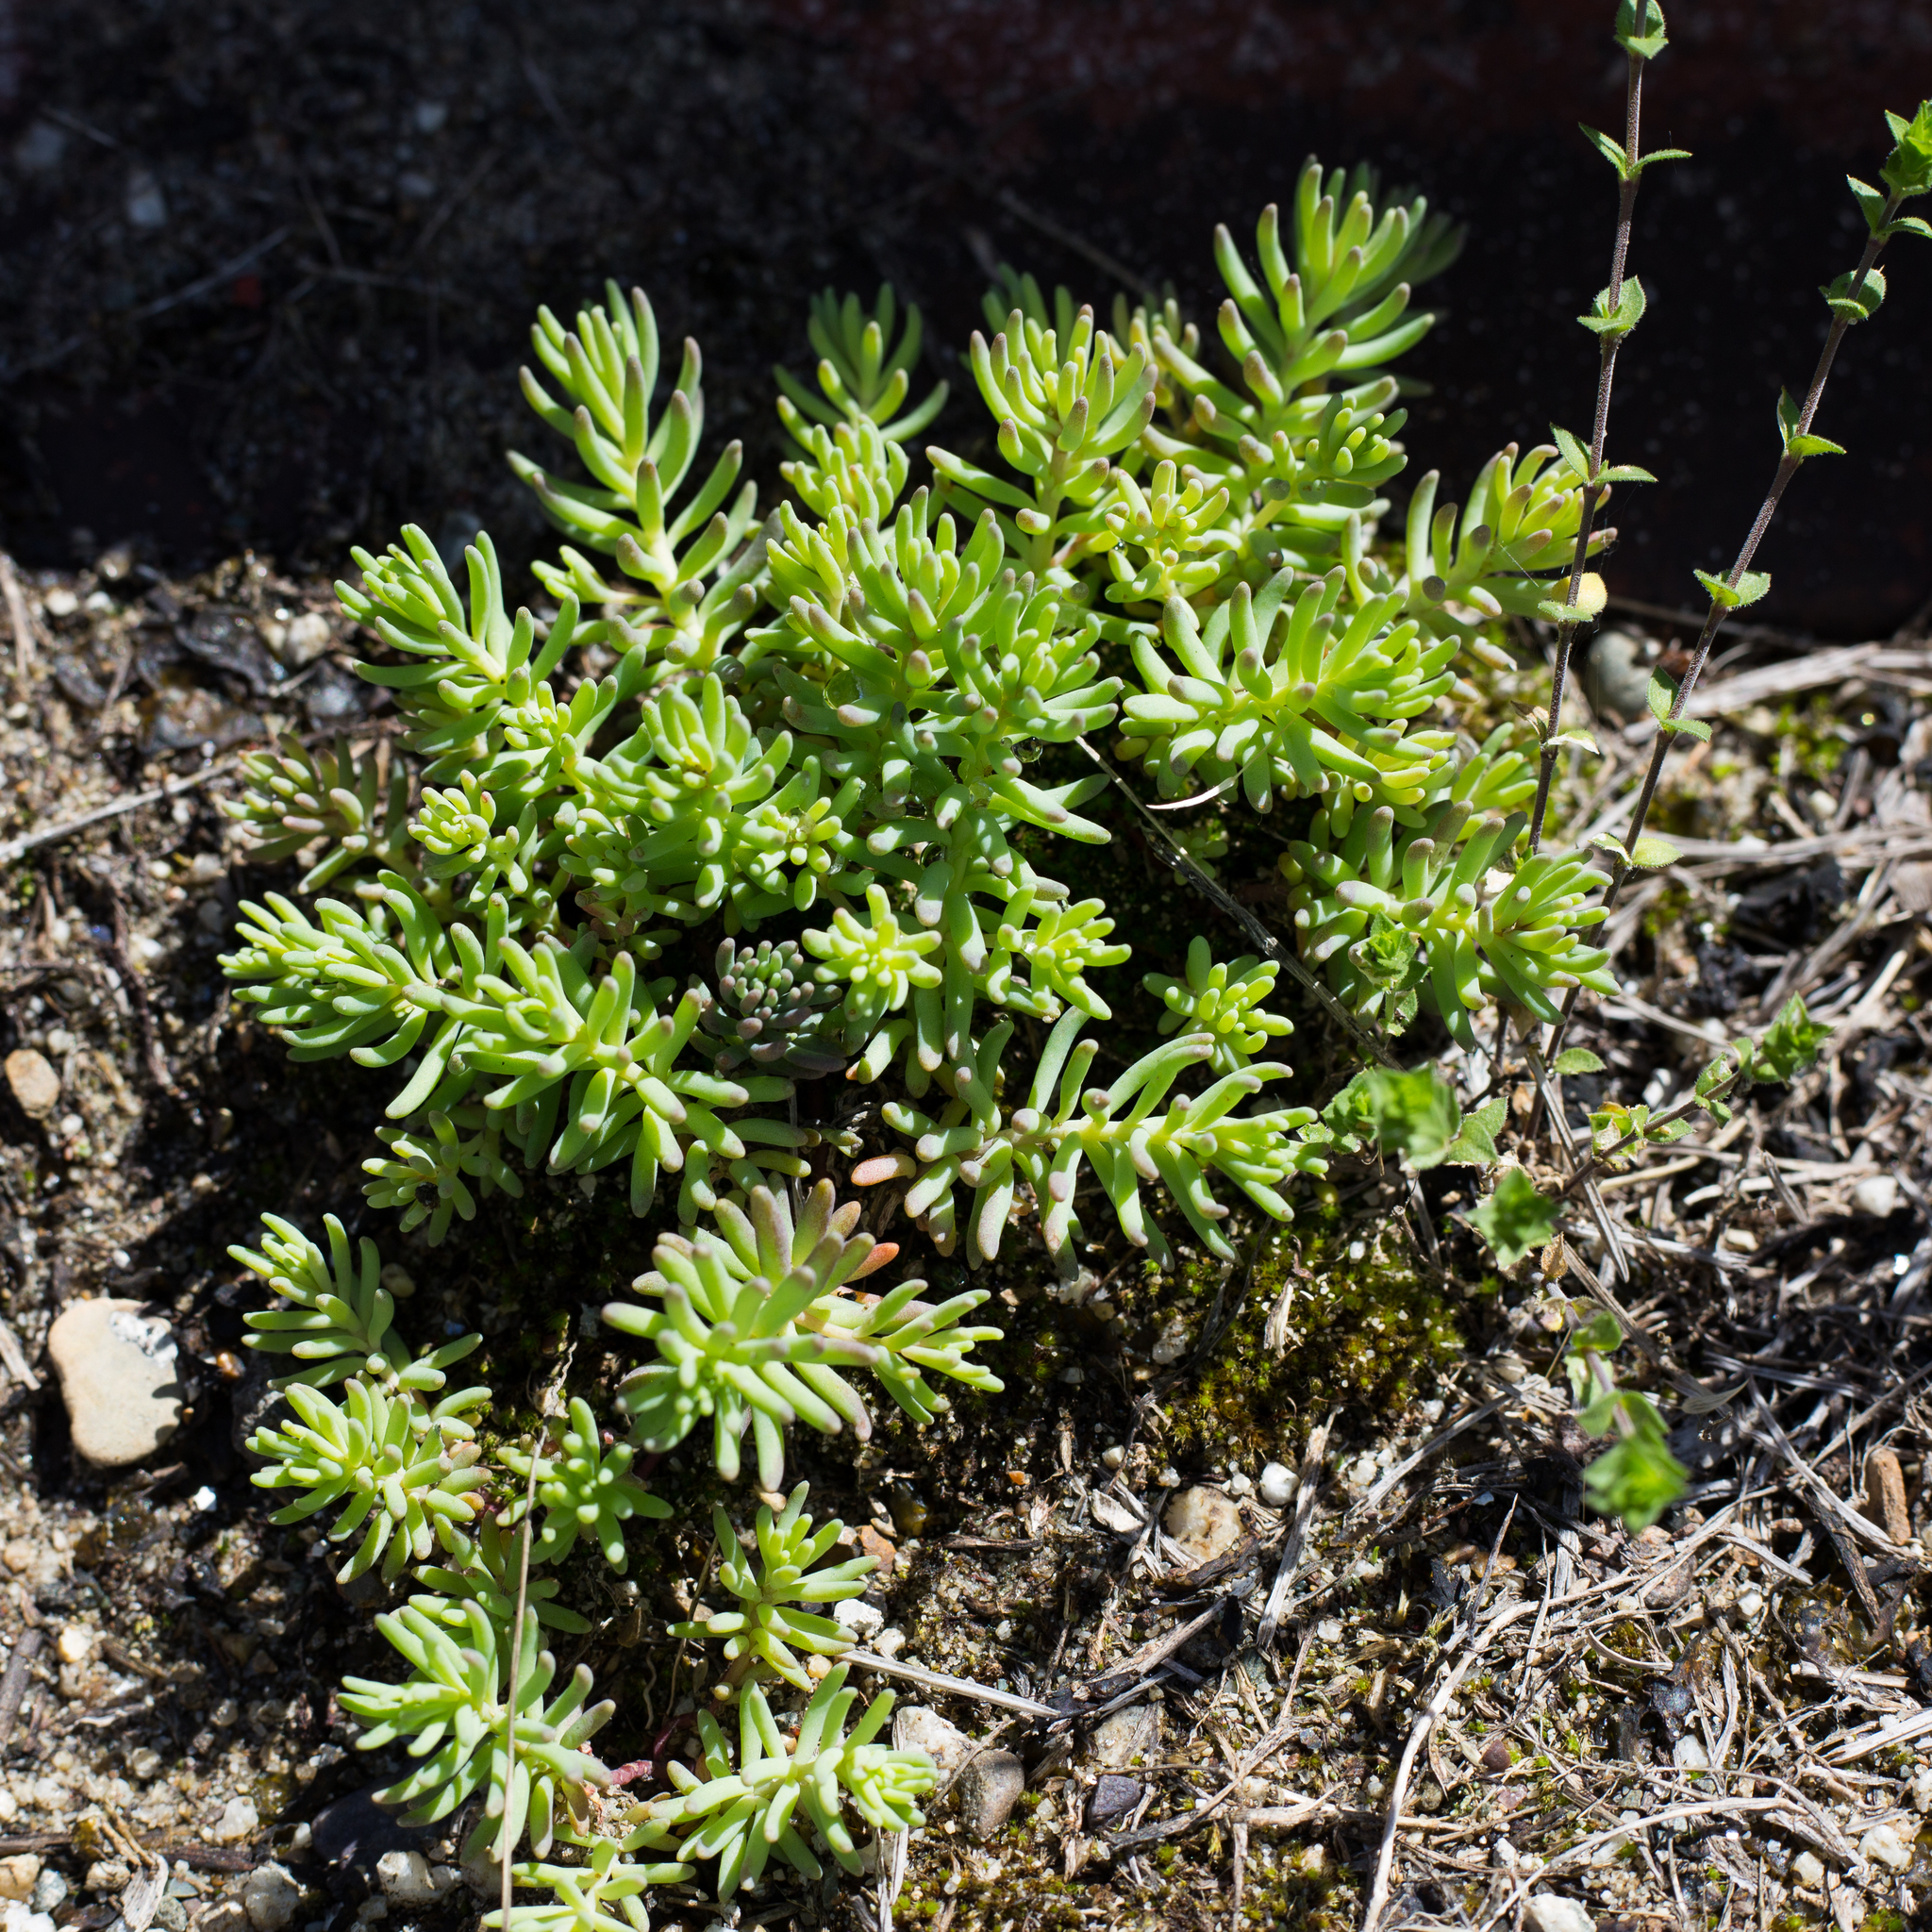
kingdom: Plantae
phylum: Tracheophyta
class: Magnoliopsida
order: Saxifragales
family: Crassulaceae
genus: Sedum
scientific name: Sedum pallidum
